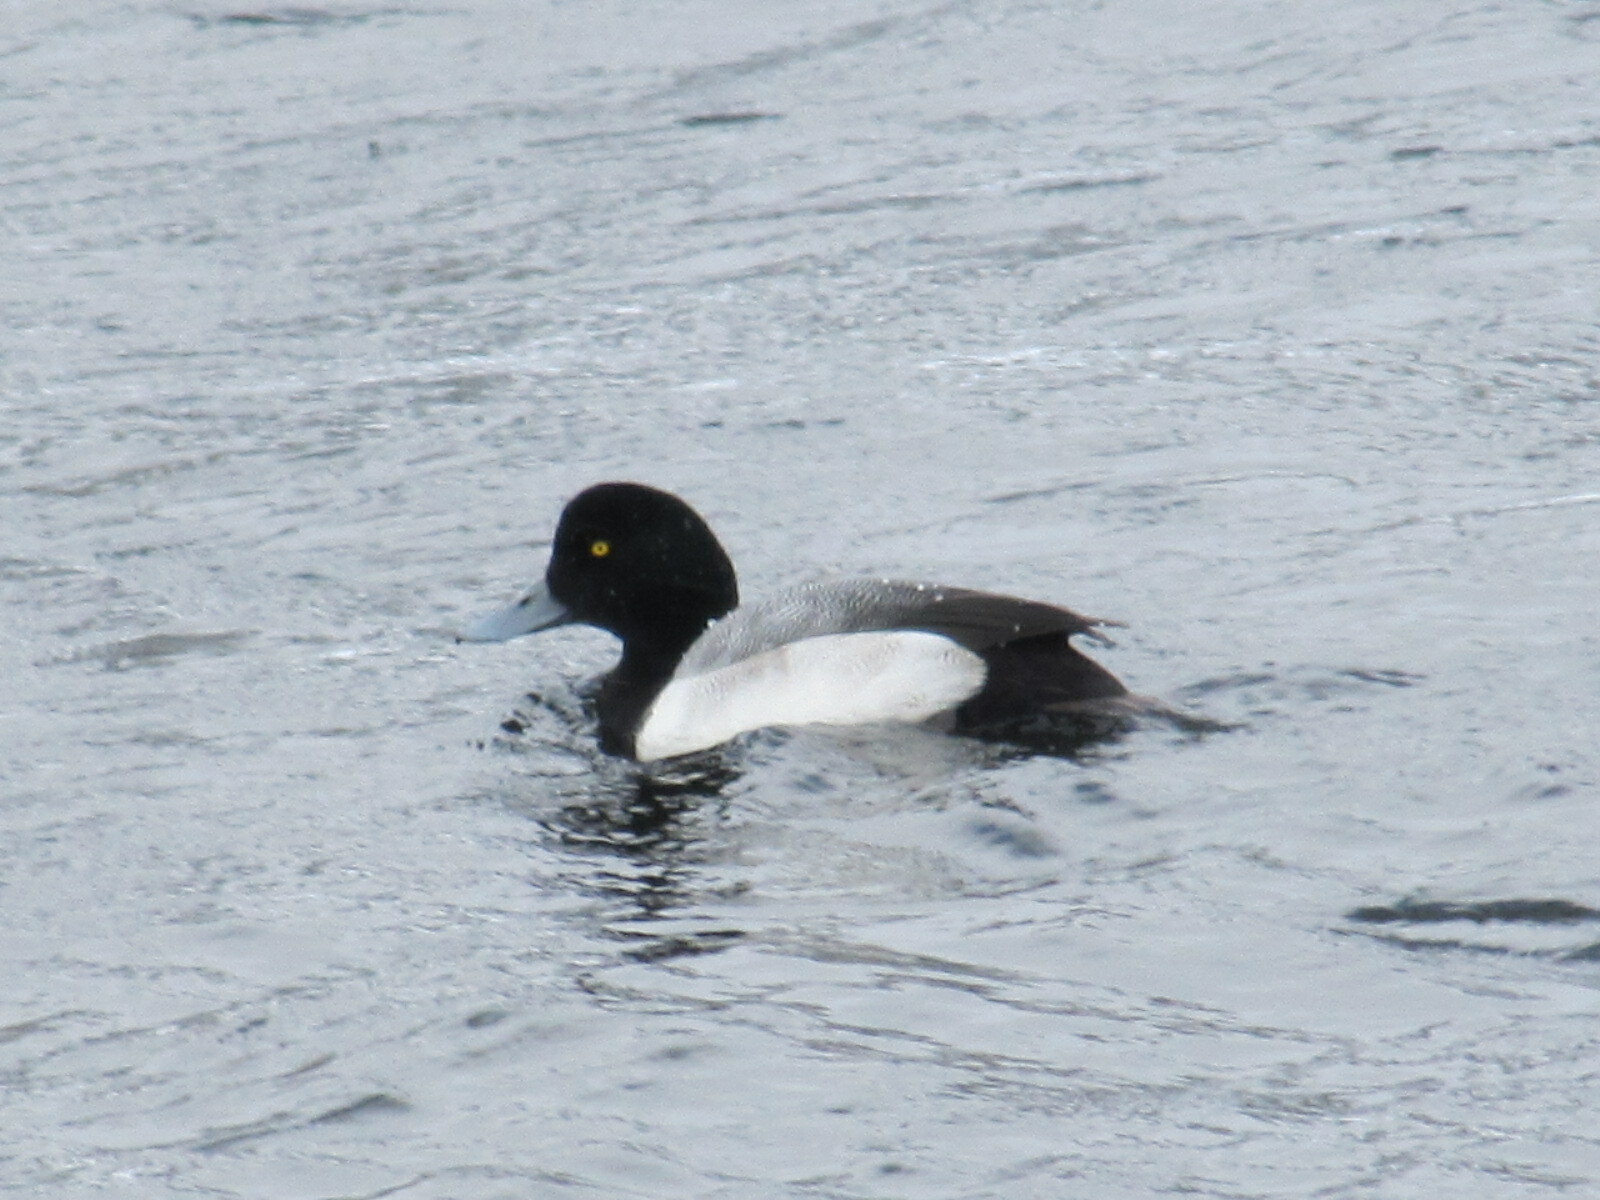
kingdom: Animalia
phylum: Chordata
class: Aves
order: Anseriformes
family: Anatidae
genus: Aythya
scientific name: Aythya marila
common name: Greater scaup
